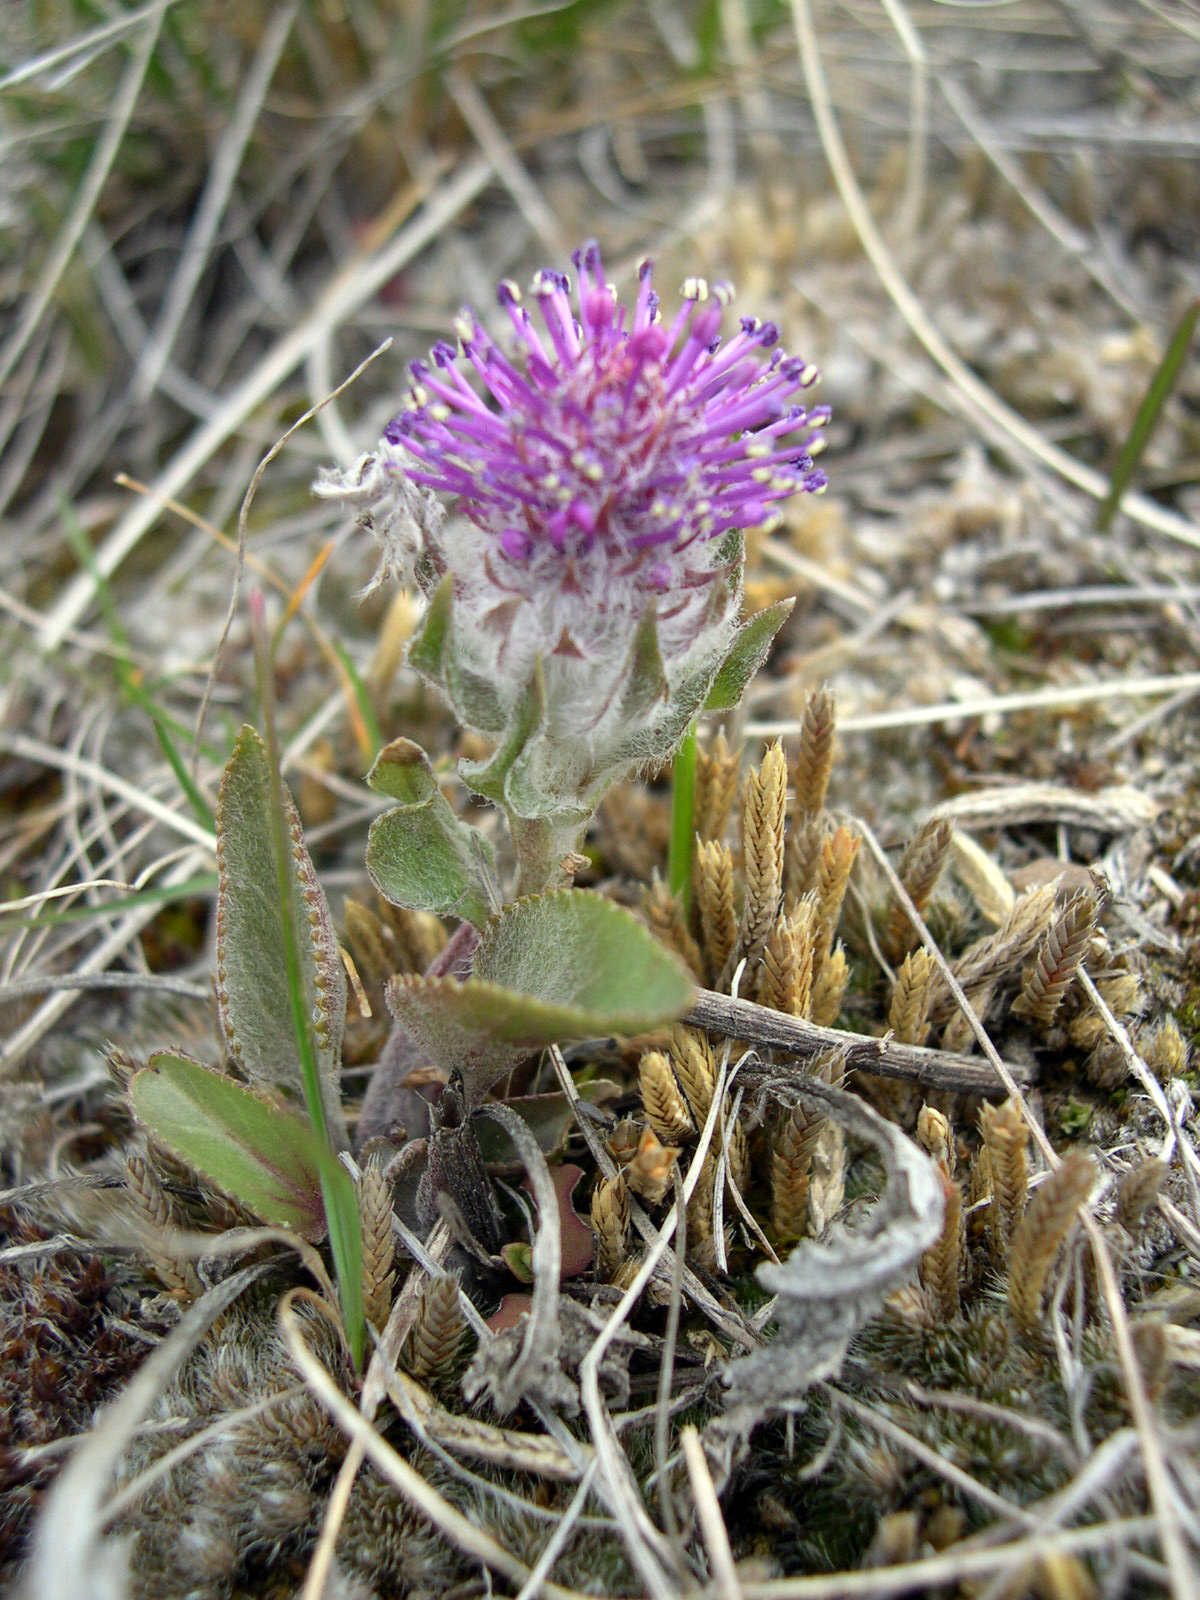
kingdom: Plantae
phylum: Tracheophyta
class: Magnoliopsida
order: Lamiales
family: Plantaginaceae
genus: Synthyris
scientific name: Synthyris wyomingensis
